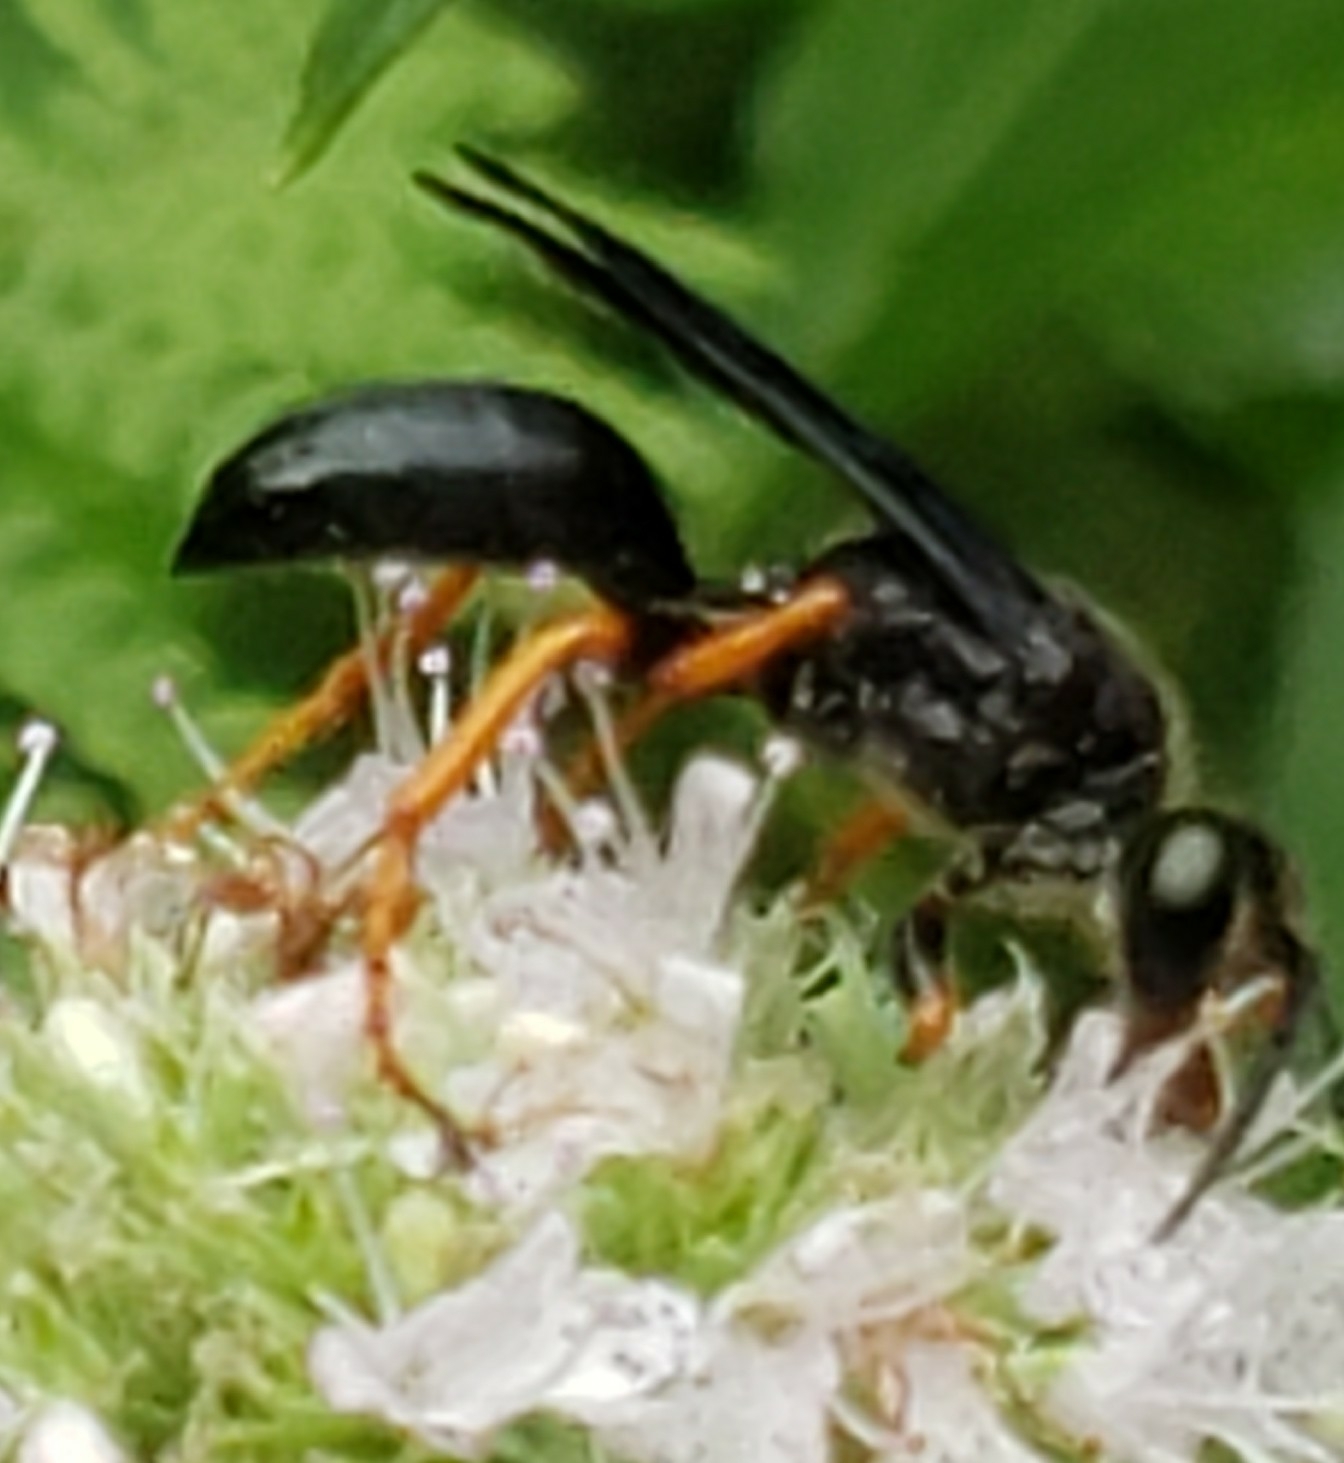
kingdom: Animalia
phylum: Arthropoda
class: Insecta
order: Hymenoptera
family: Sphecidae
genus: Sphex
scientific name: Sphex nudus
